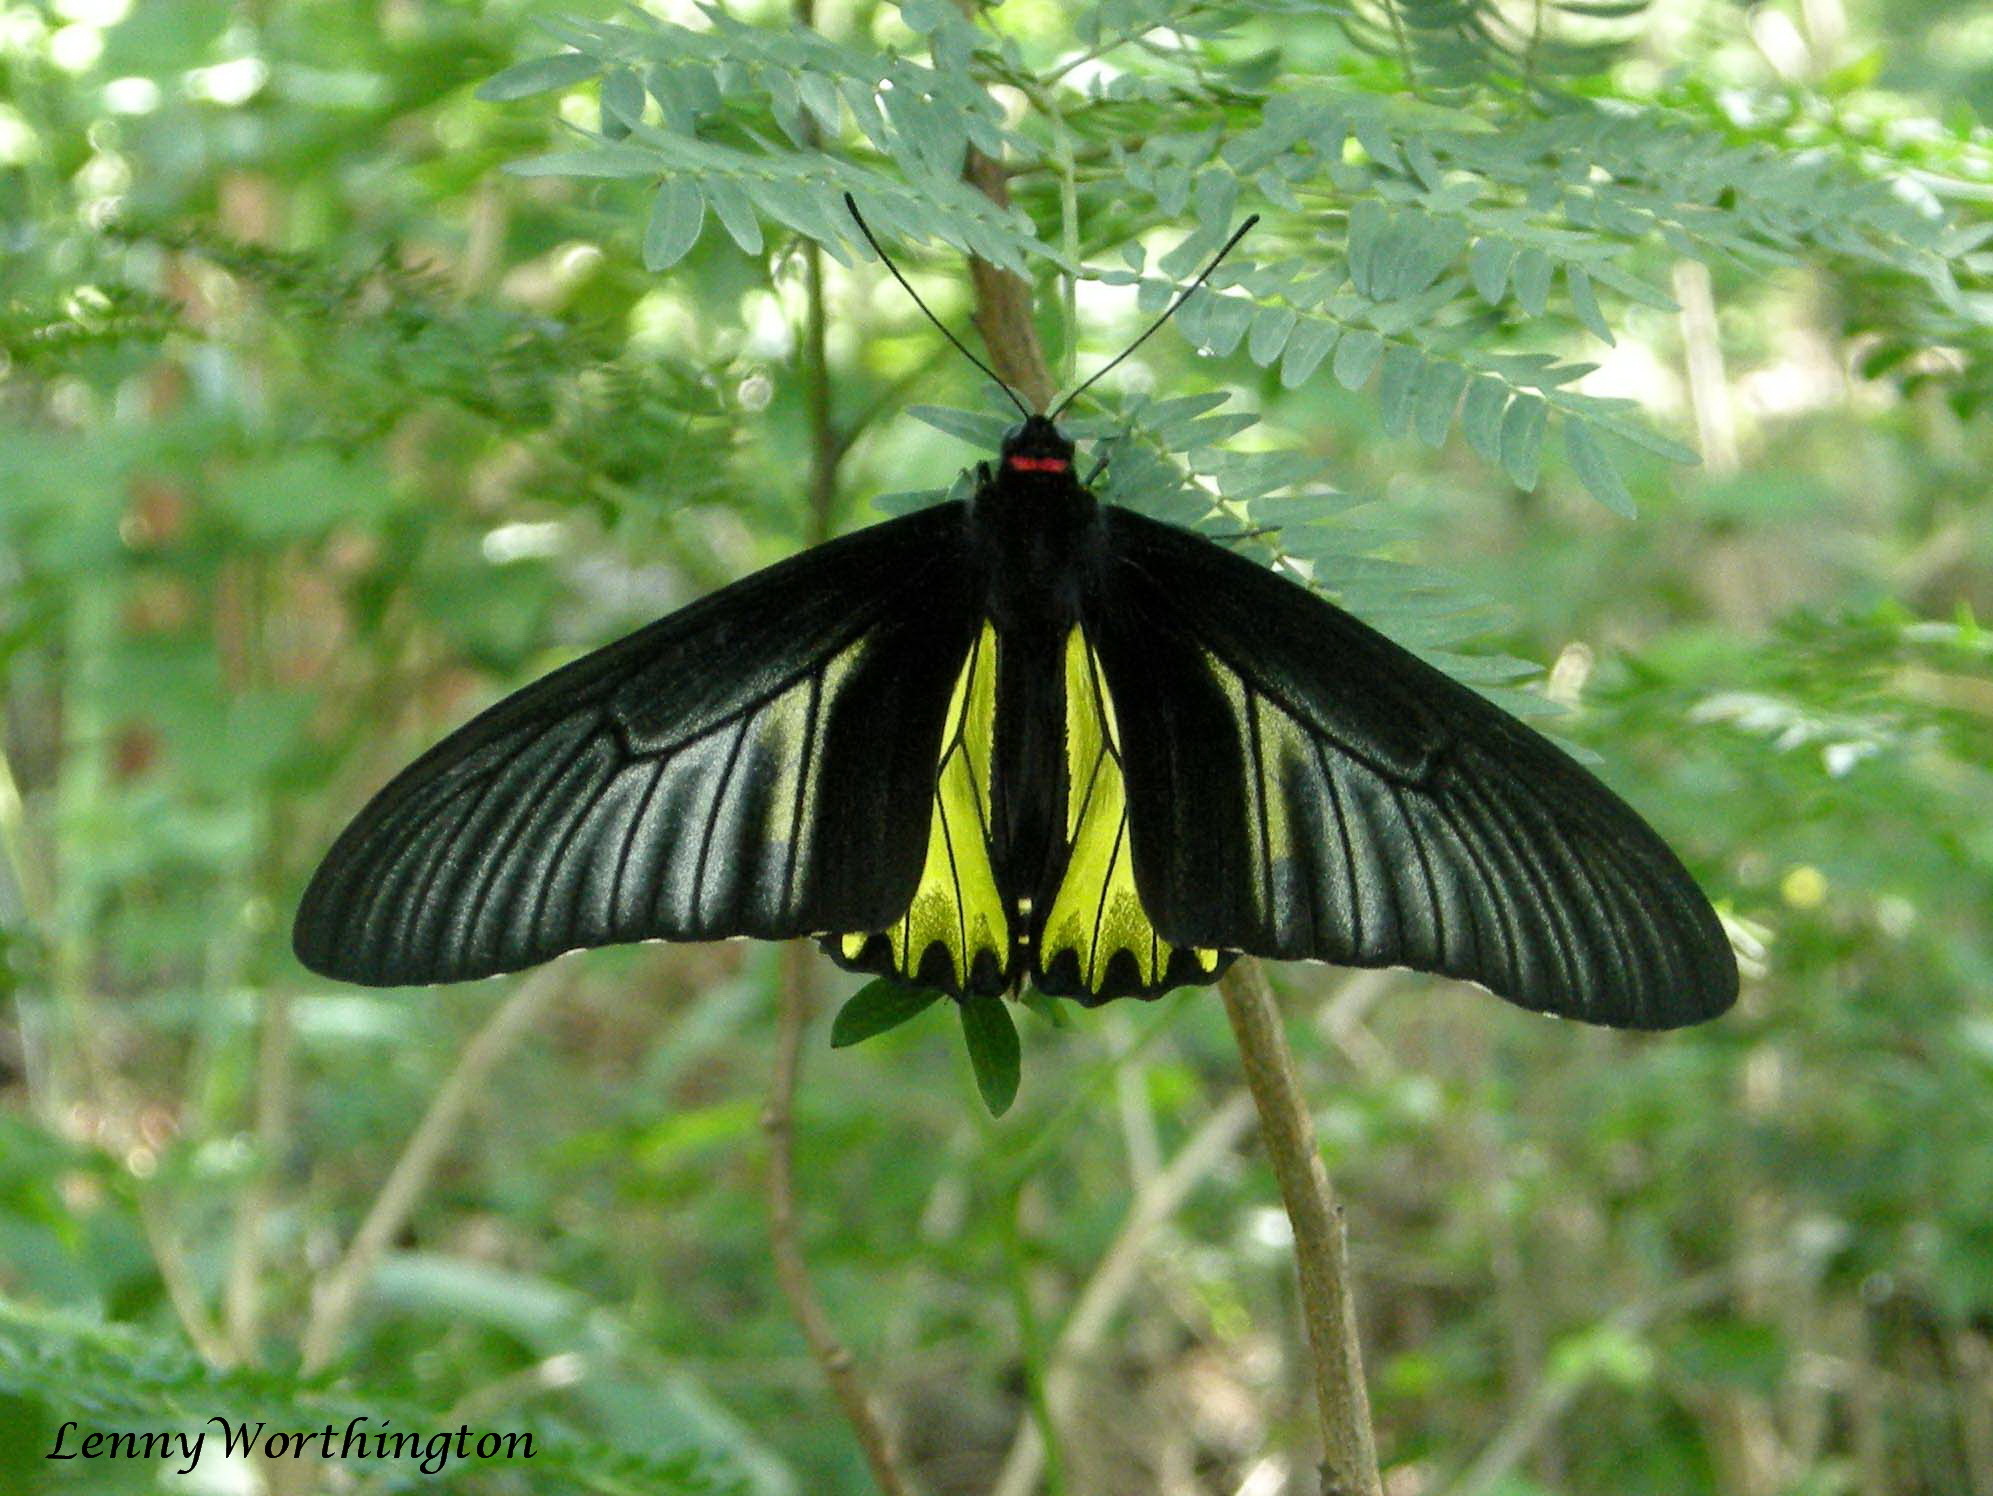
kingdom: Animalia
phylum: Arthropoda
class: Insecta
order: Lepidoptera
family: Papilionidae
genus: Troides
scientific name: Troides aeacus
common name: Golden birdwing
